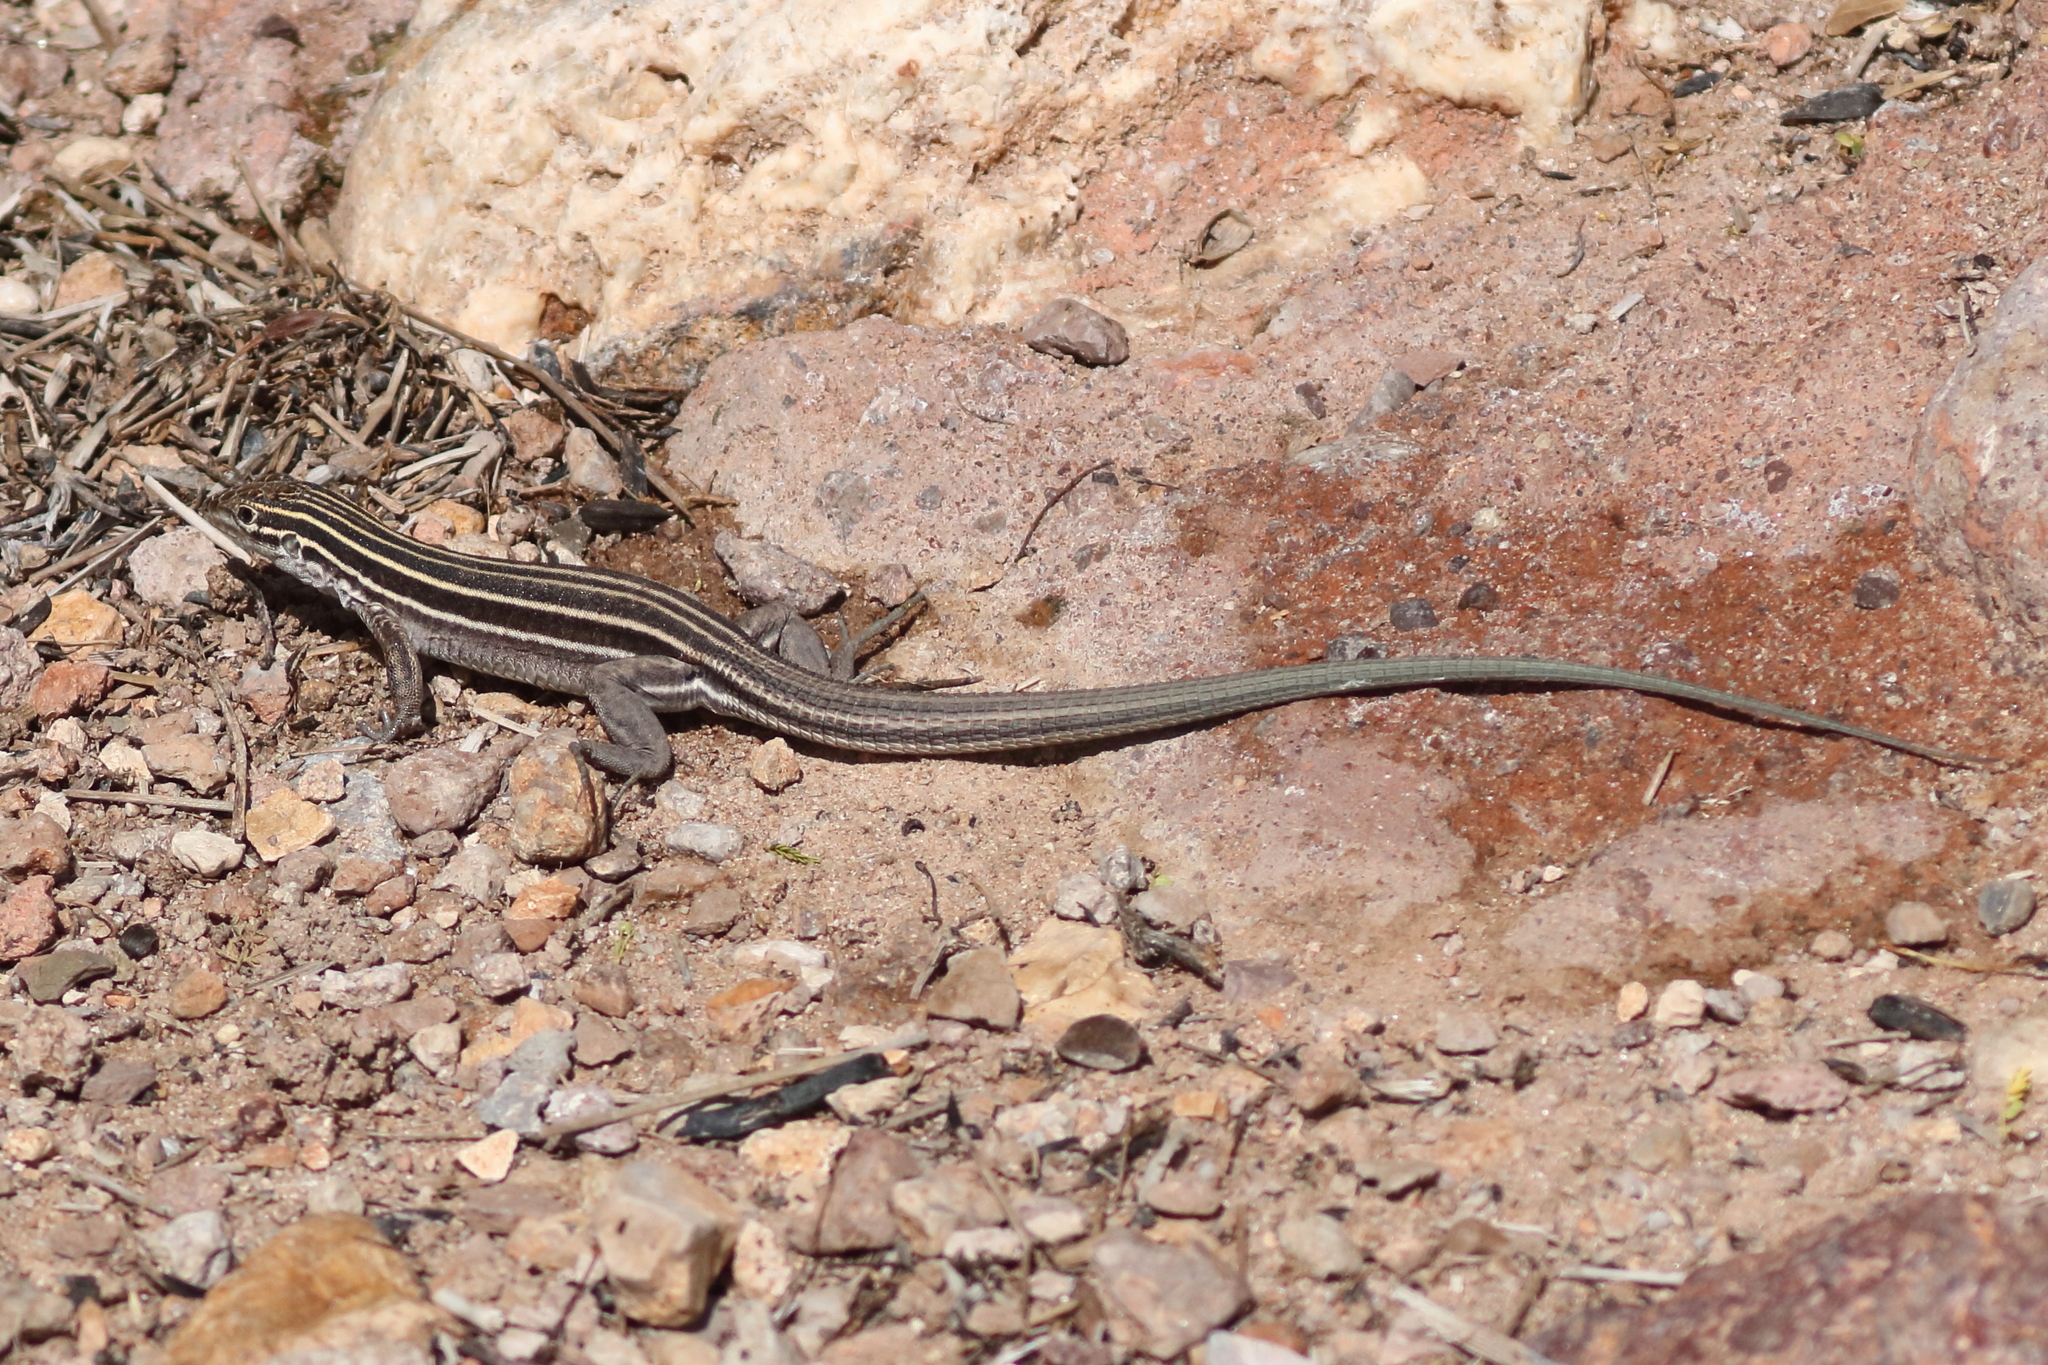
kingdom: Animalia
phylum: Chordata
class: Squamata
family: Teiidae
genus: Aspidoscelis
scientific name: Aspidoscelis uniparens
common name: Desert grassland whiptail
